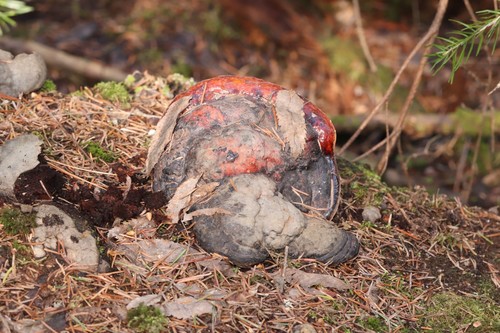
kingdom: Fungi
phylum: Basidiomycota
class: Agaricomycetes
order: Polyporales
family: Fomitopsidaceae
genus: Fomitopsis
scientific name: Fomitopsis pinicola
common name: Red-belted bracket
